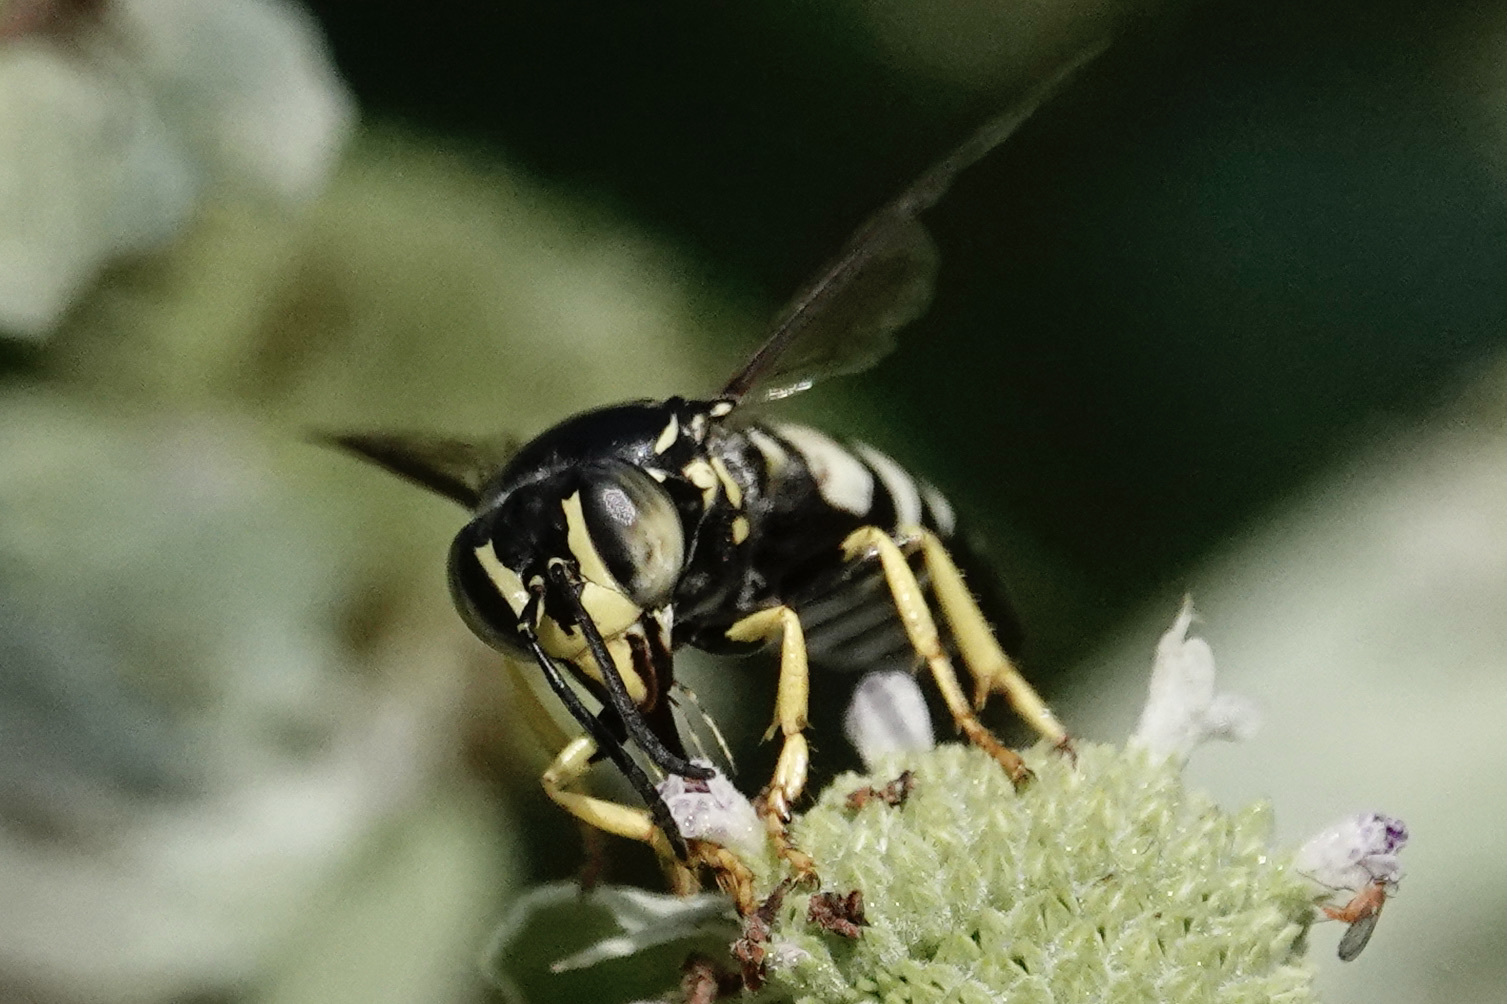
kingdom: Animalia
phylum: Arthropoda
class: Insecta
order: Hymenoptera
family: Crabronidae
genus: Bicyrtes
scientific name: Bicyrtes quadrifasciatus
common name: Four-banded stink bug hunter wasp
